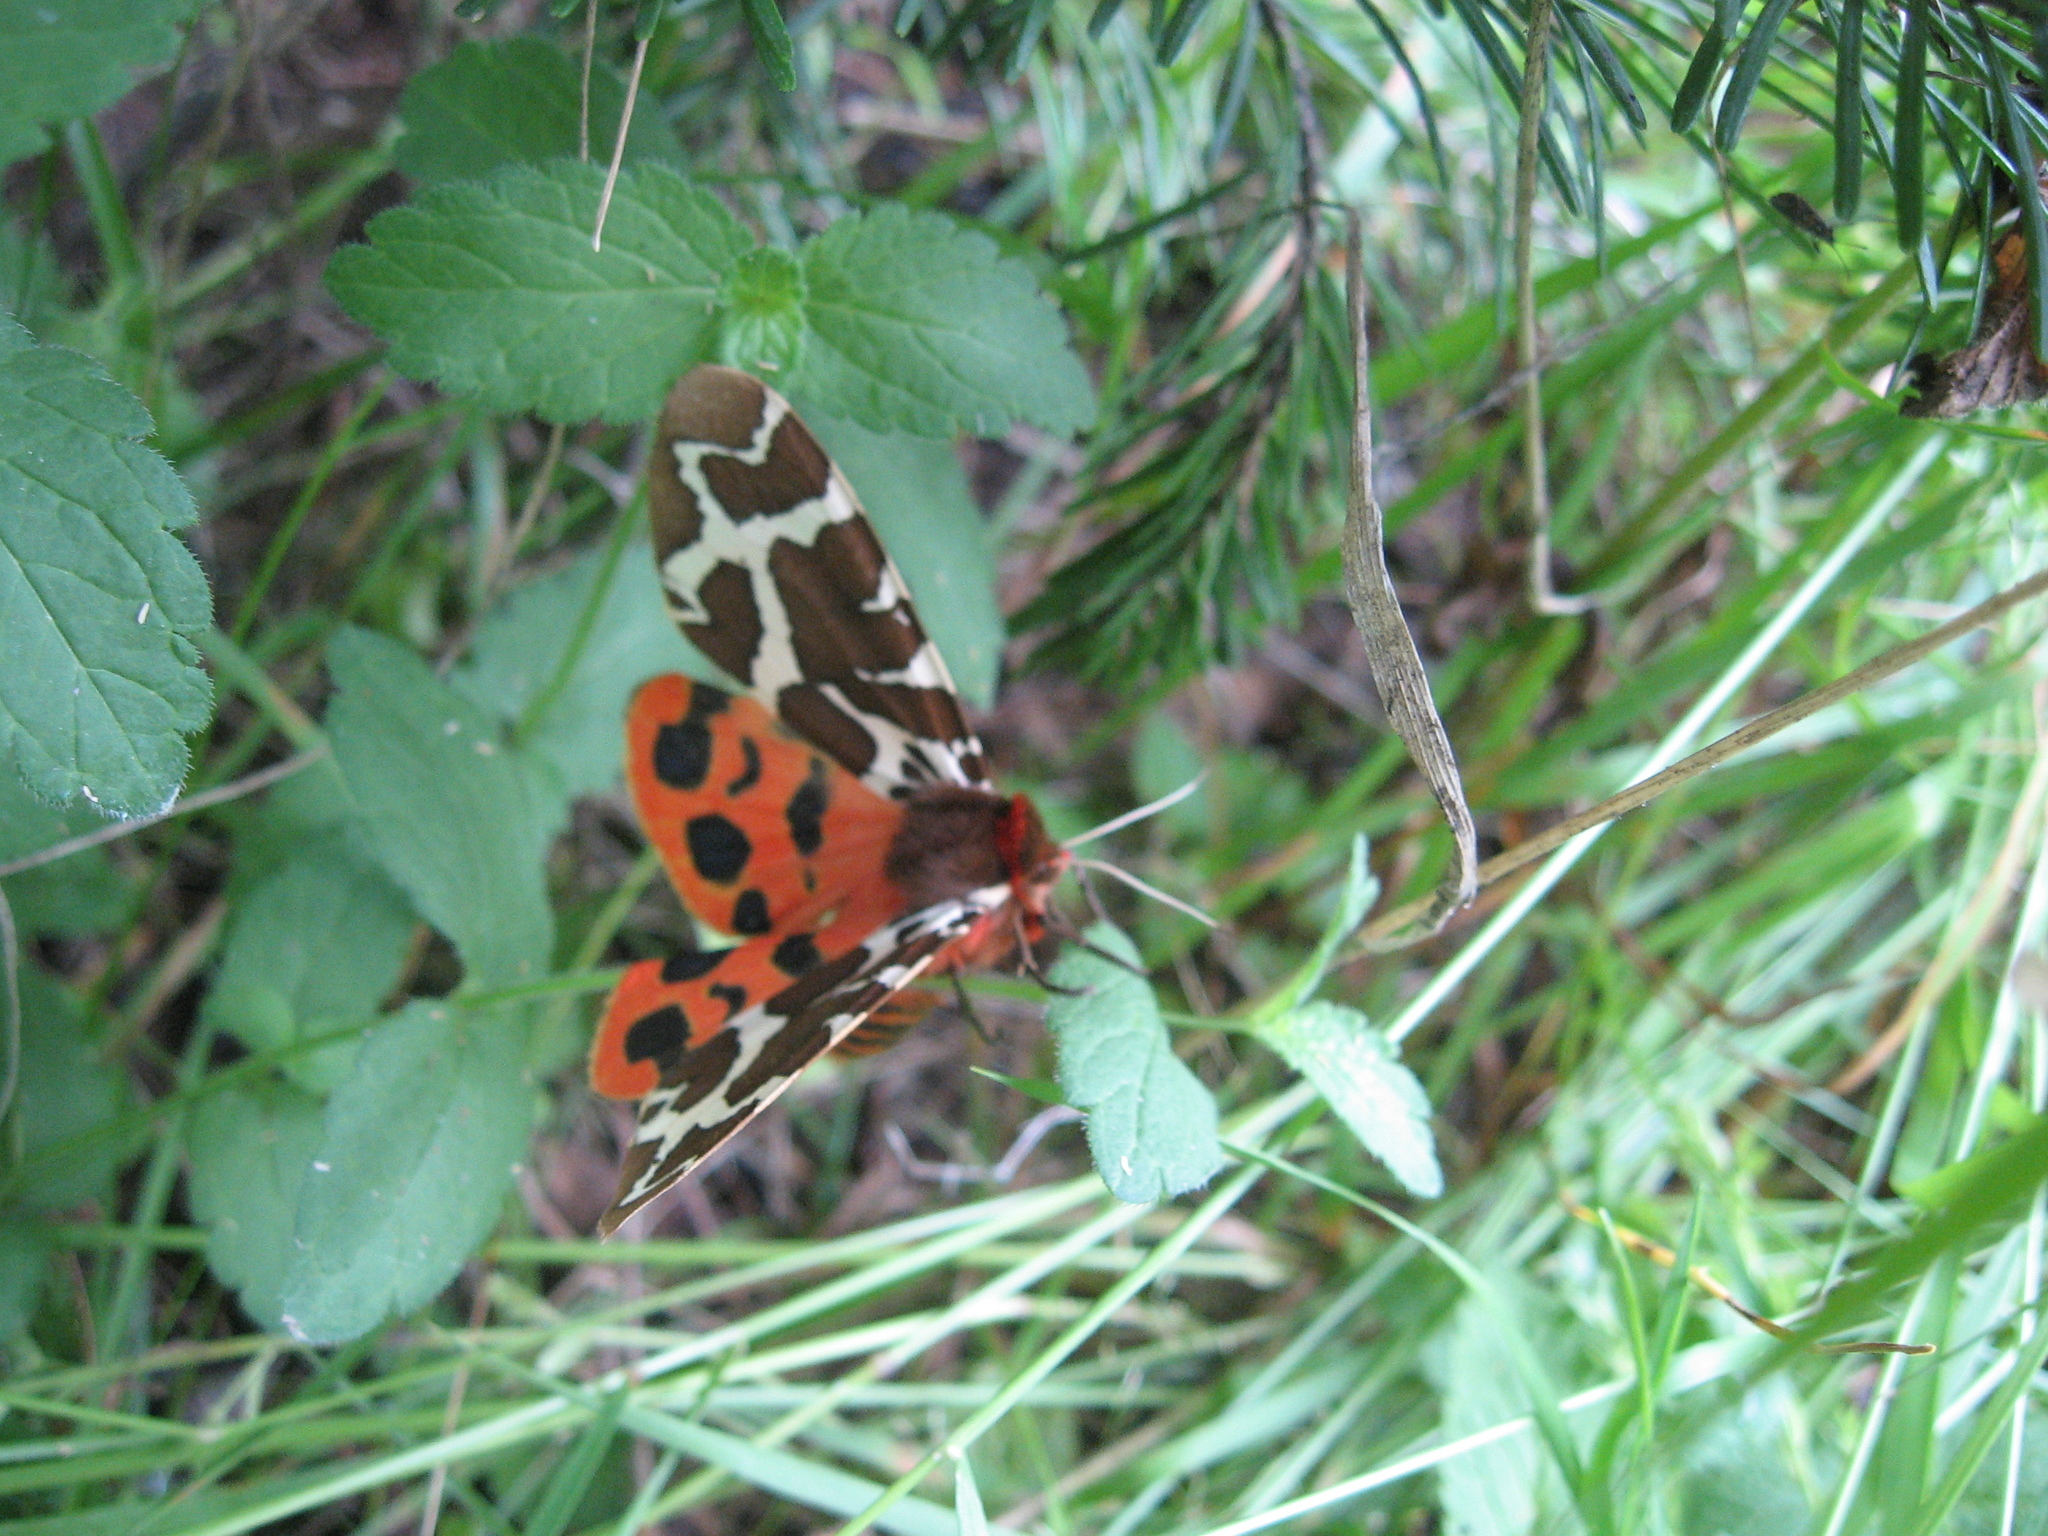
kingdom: Animalia
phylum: Arthropoda
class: Insecta
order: Lepidoptera
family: Erebidae
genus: Arctia
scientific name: Arctia caja
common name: Garden tiger
